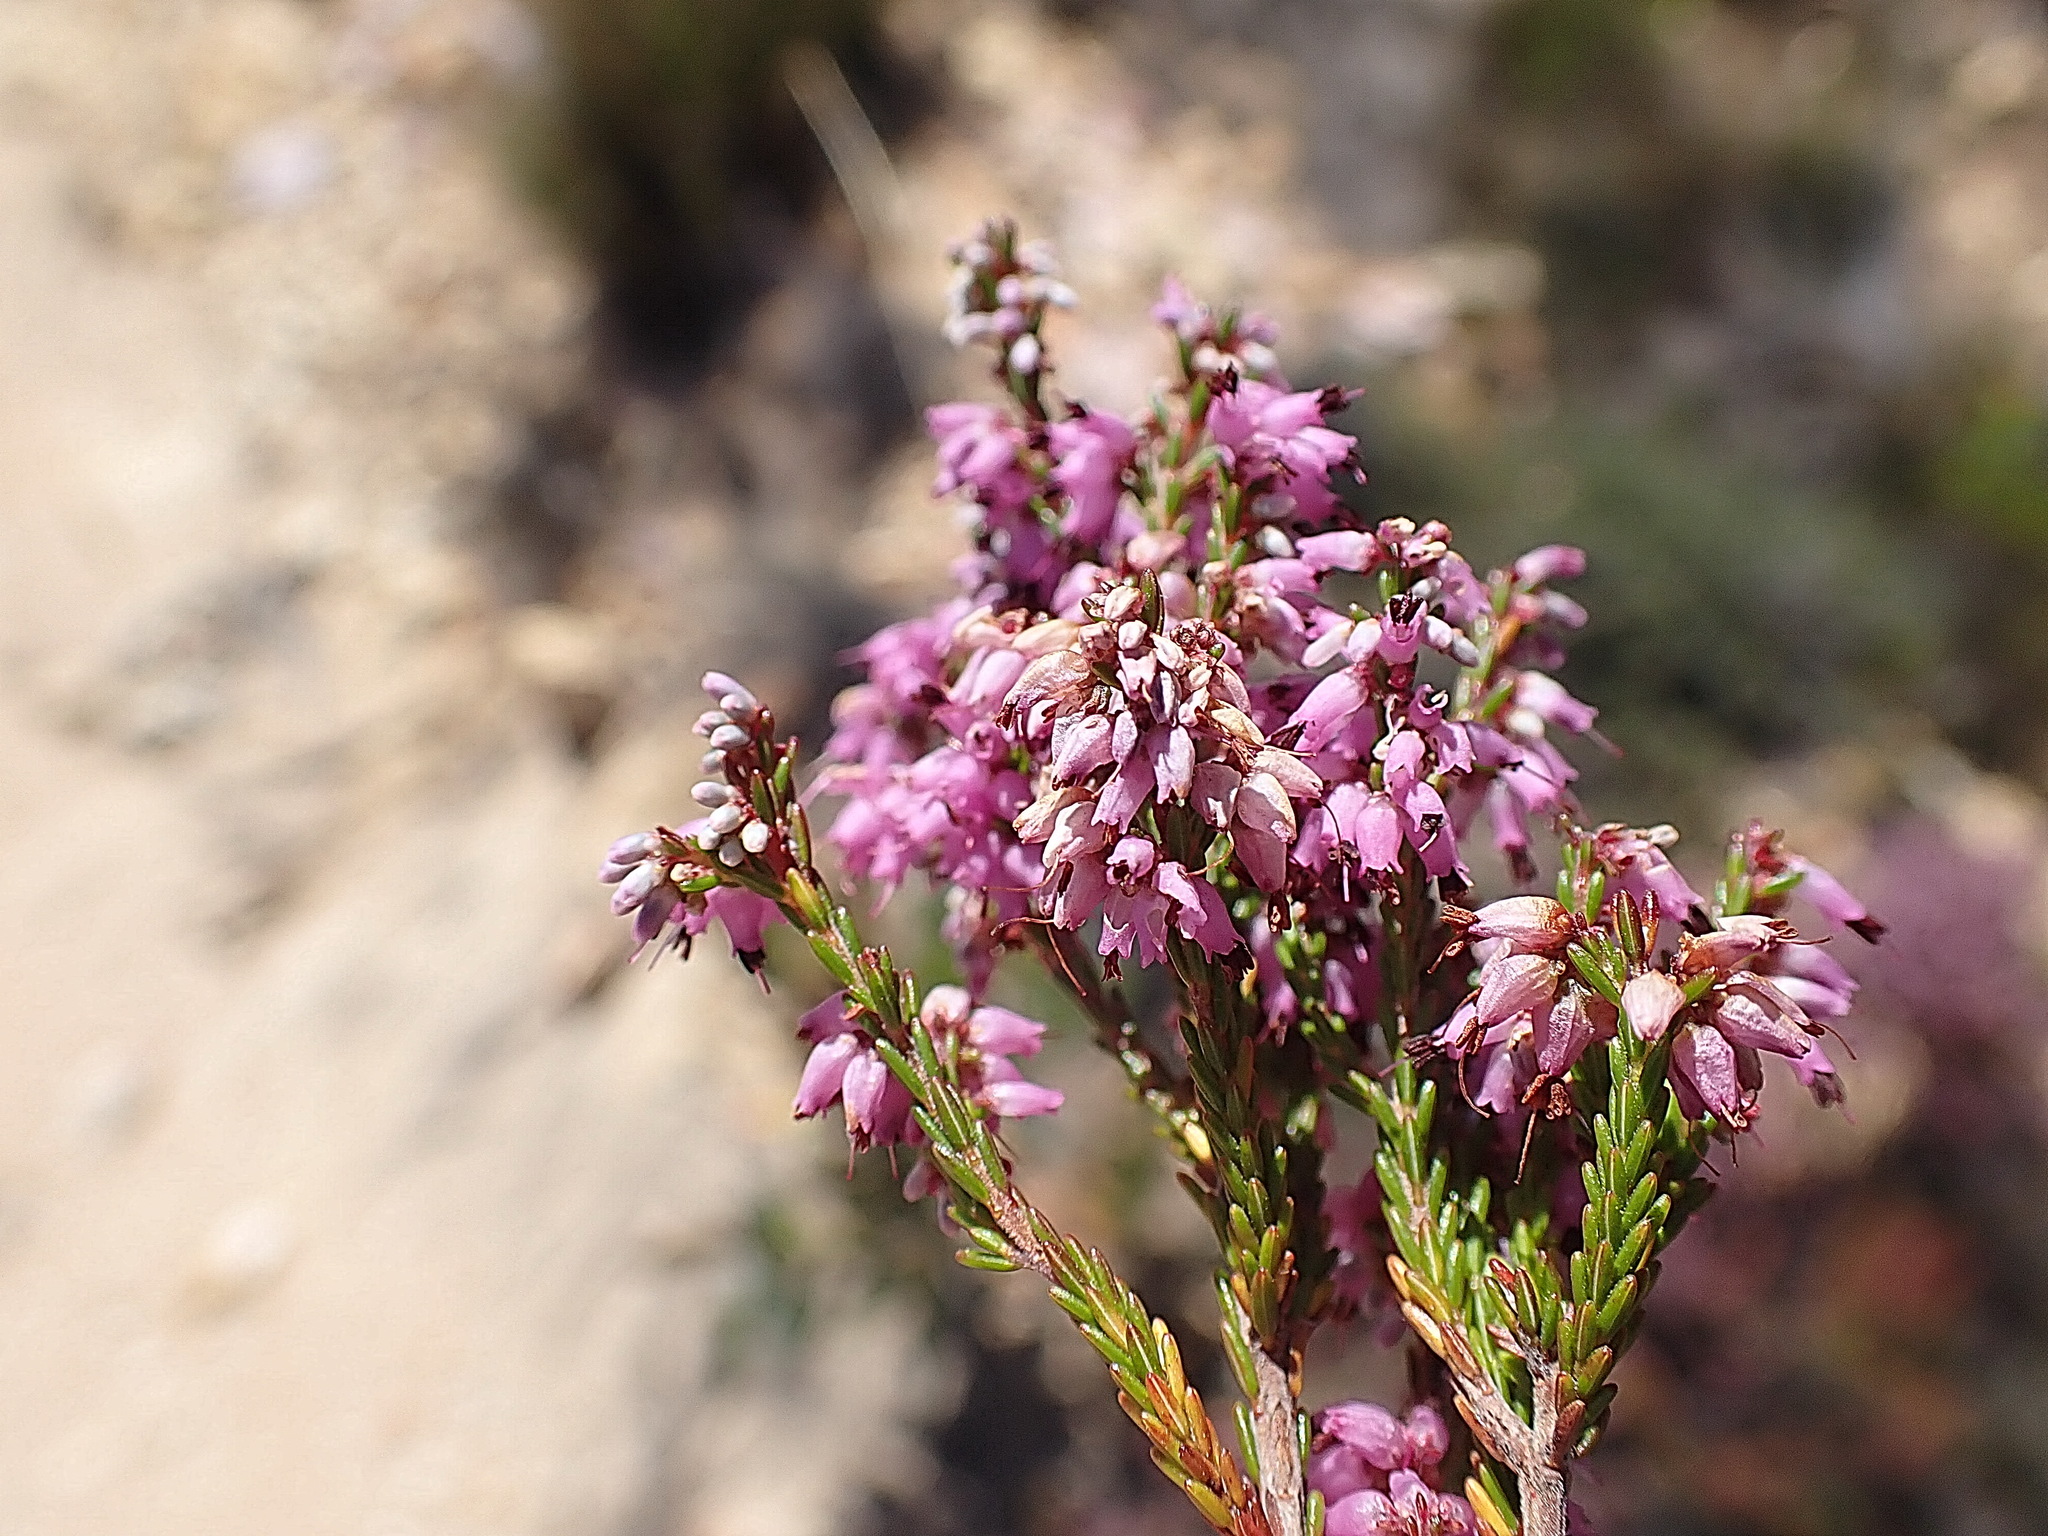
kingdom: Plantae
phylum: Tracheophyta
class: Magnoliopsida
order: Ericales
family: Ericaceae
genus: Erica
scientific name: Erica uberiflora
